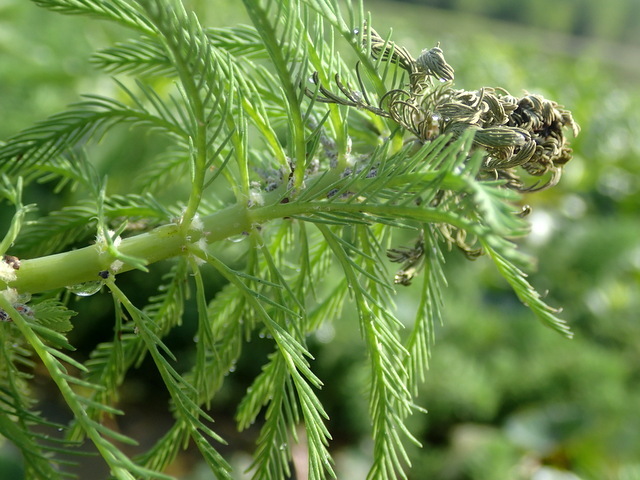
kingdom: Plantae
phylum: Tracheophyta
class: Magnoliopsida
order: Saxifragales
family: Haloragaceae
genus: Myriophyllum
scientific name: Myriophyllum aquaticum
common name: Parrot's feather
